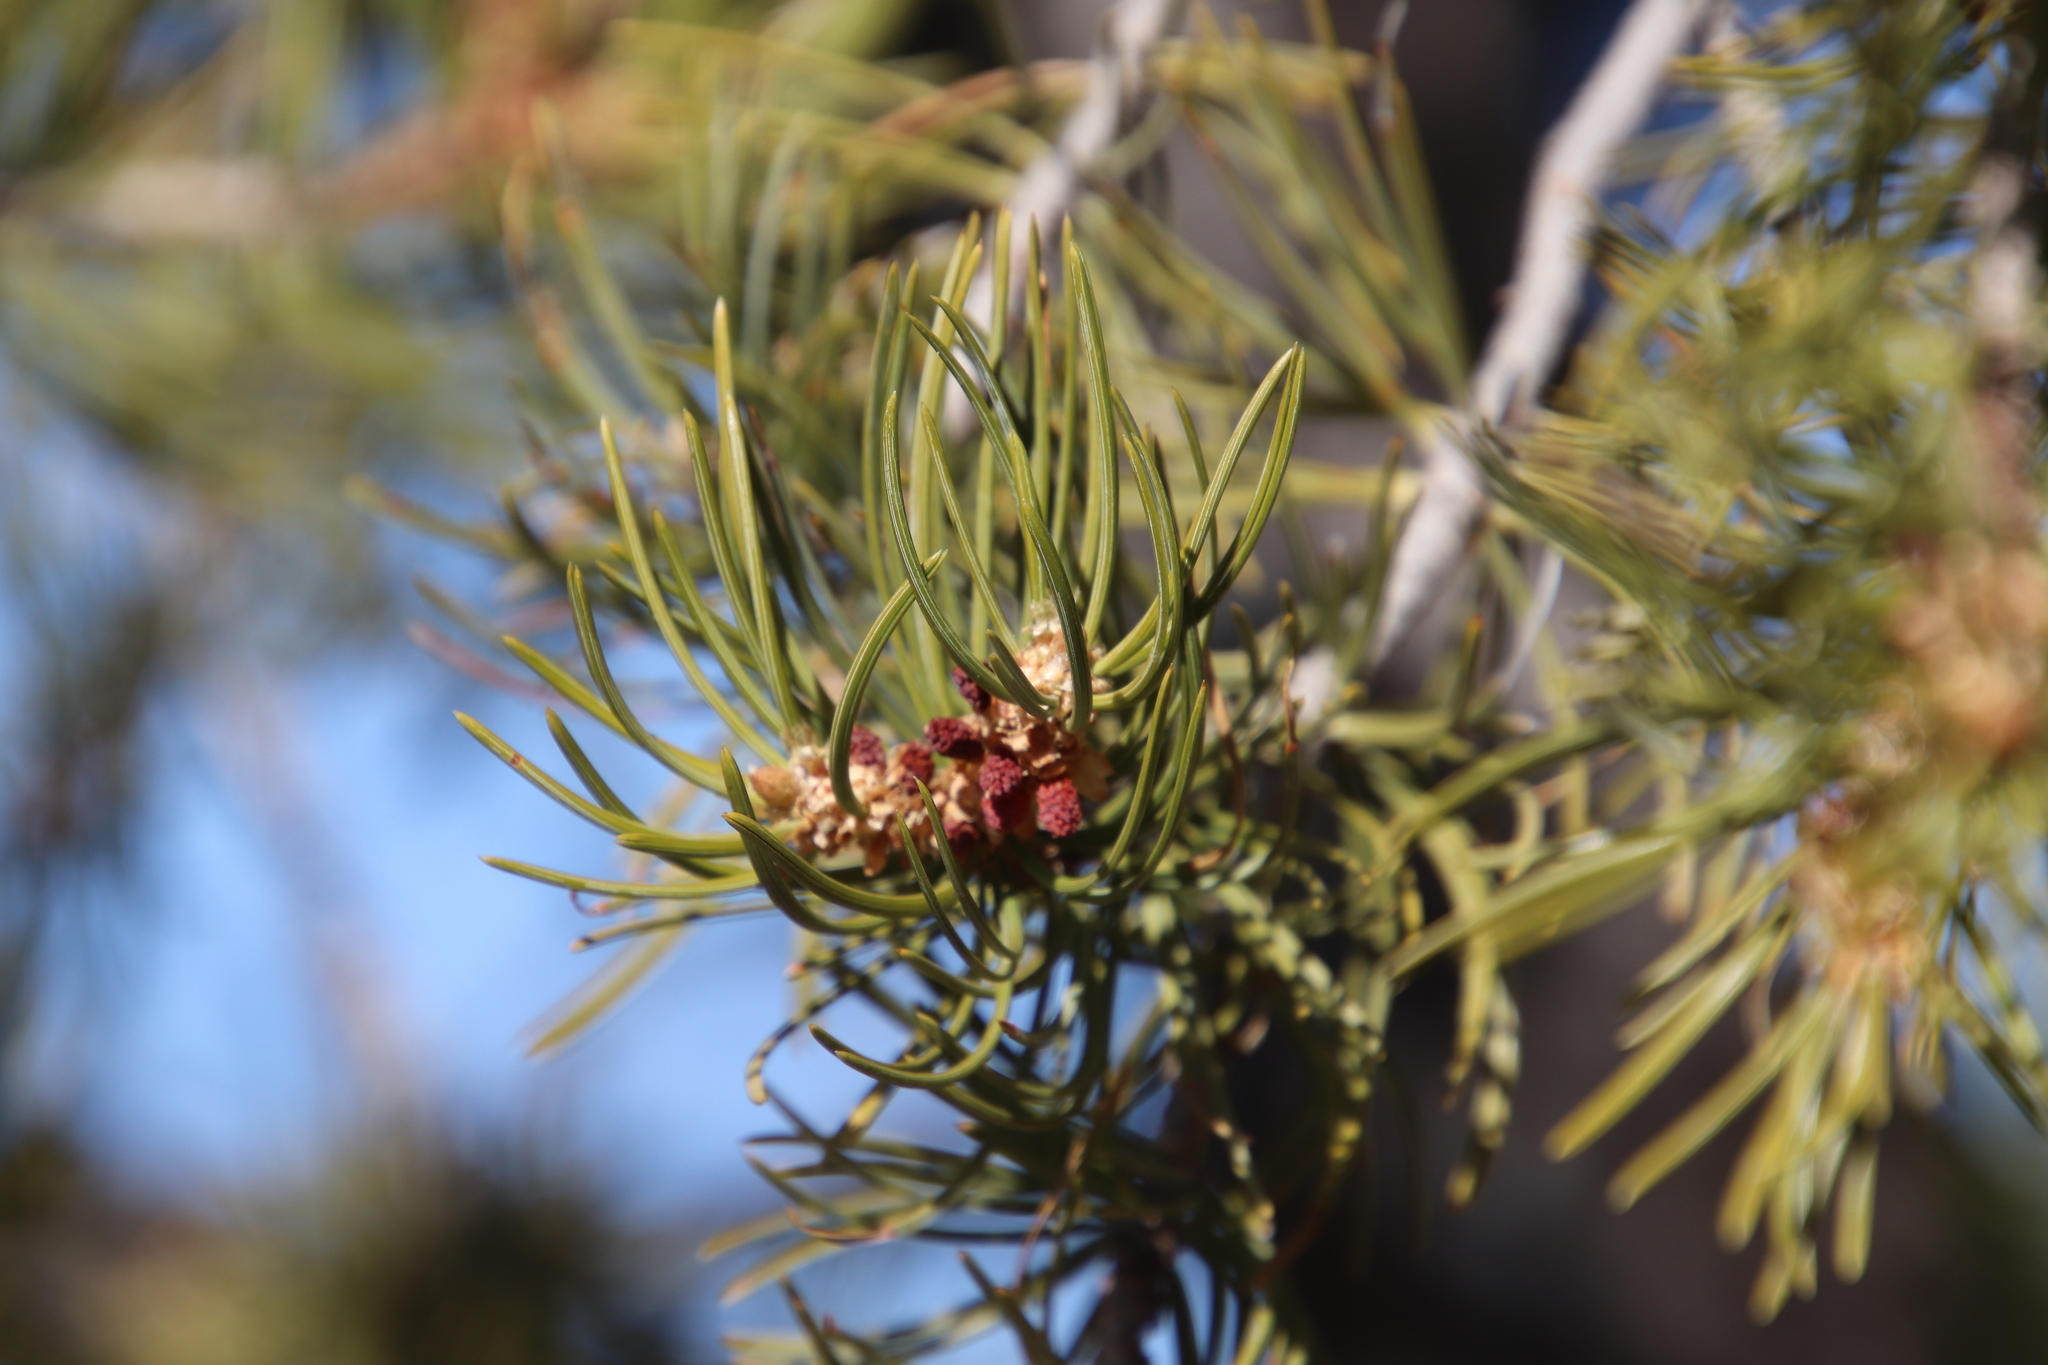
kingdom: Plantae
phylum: Tracheophyta
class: Pinopsida
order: Pinales
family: Pinaceae
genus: Pinus
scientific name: Pinus edulis
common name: Colorado pinyon
